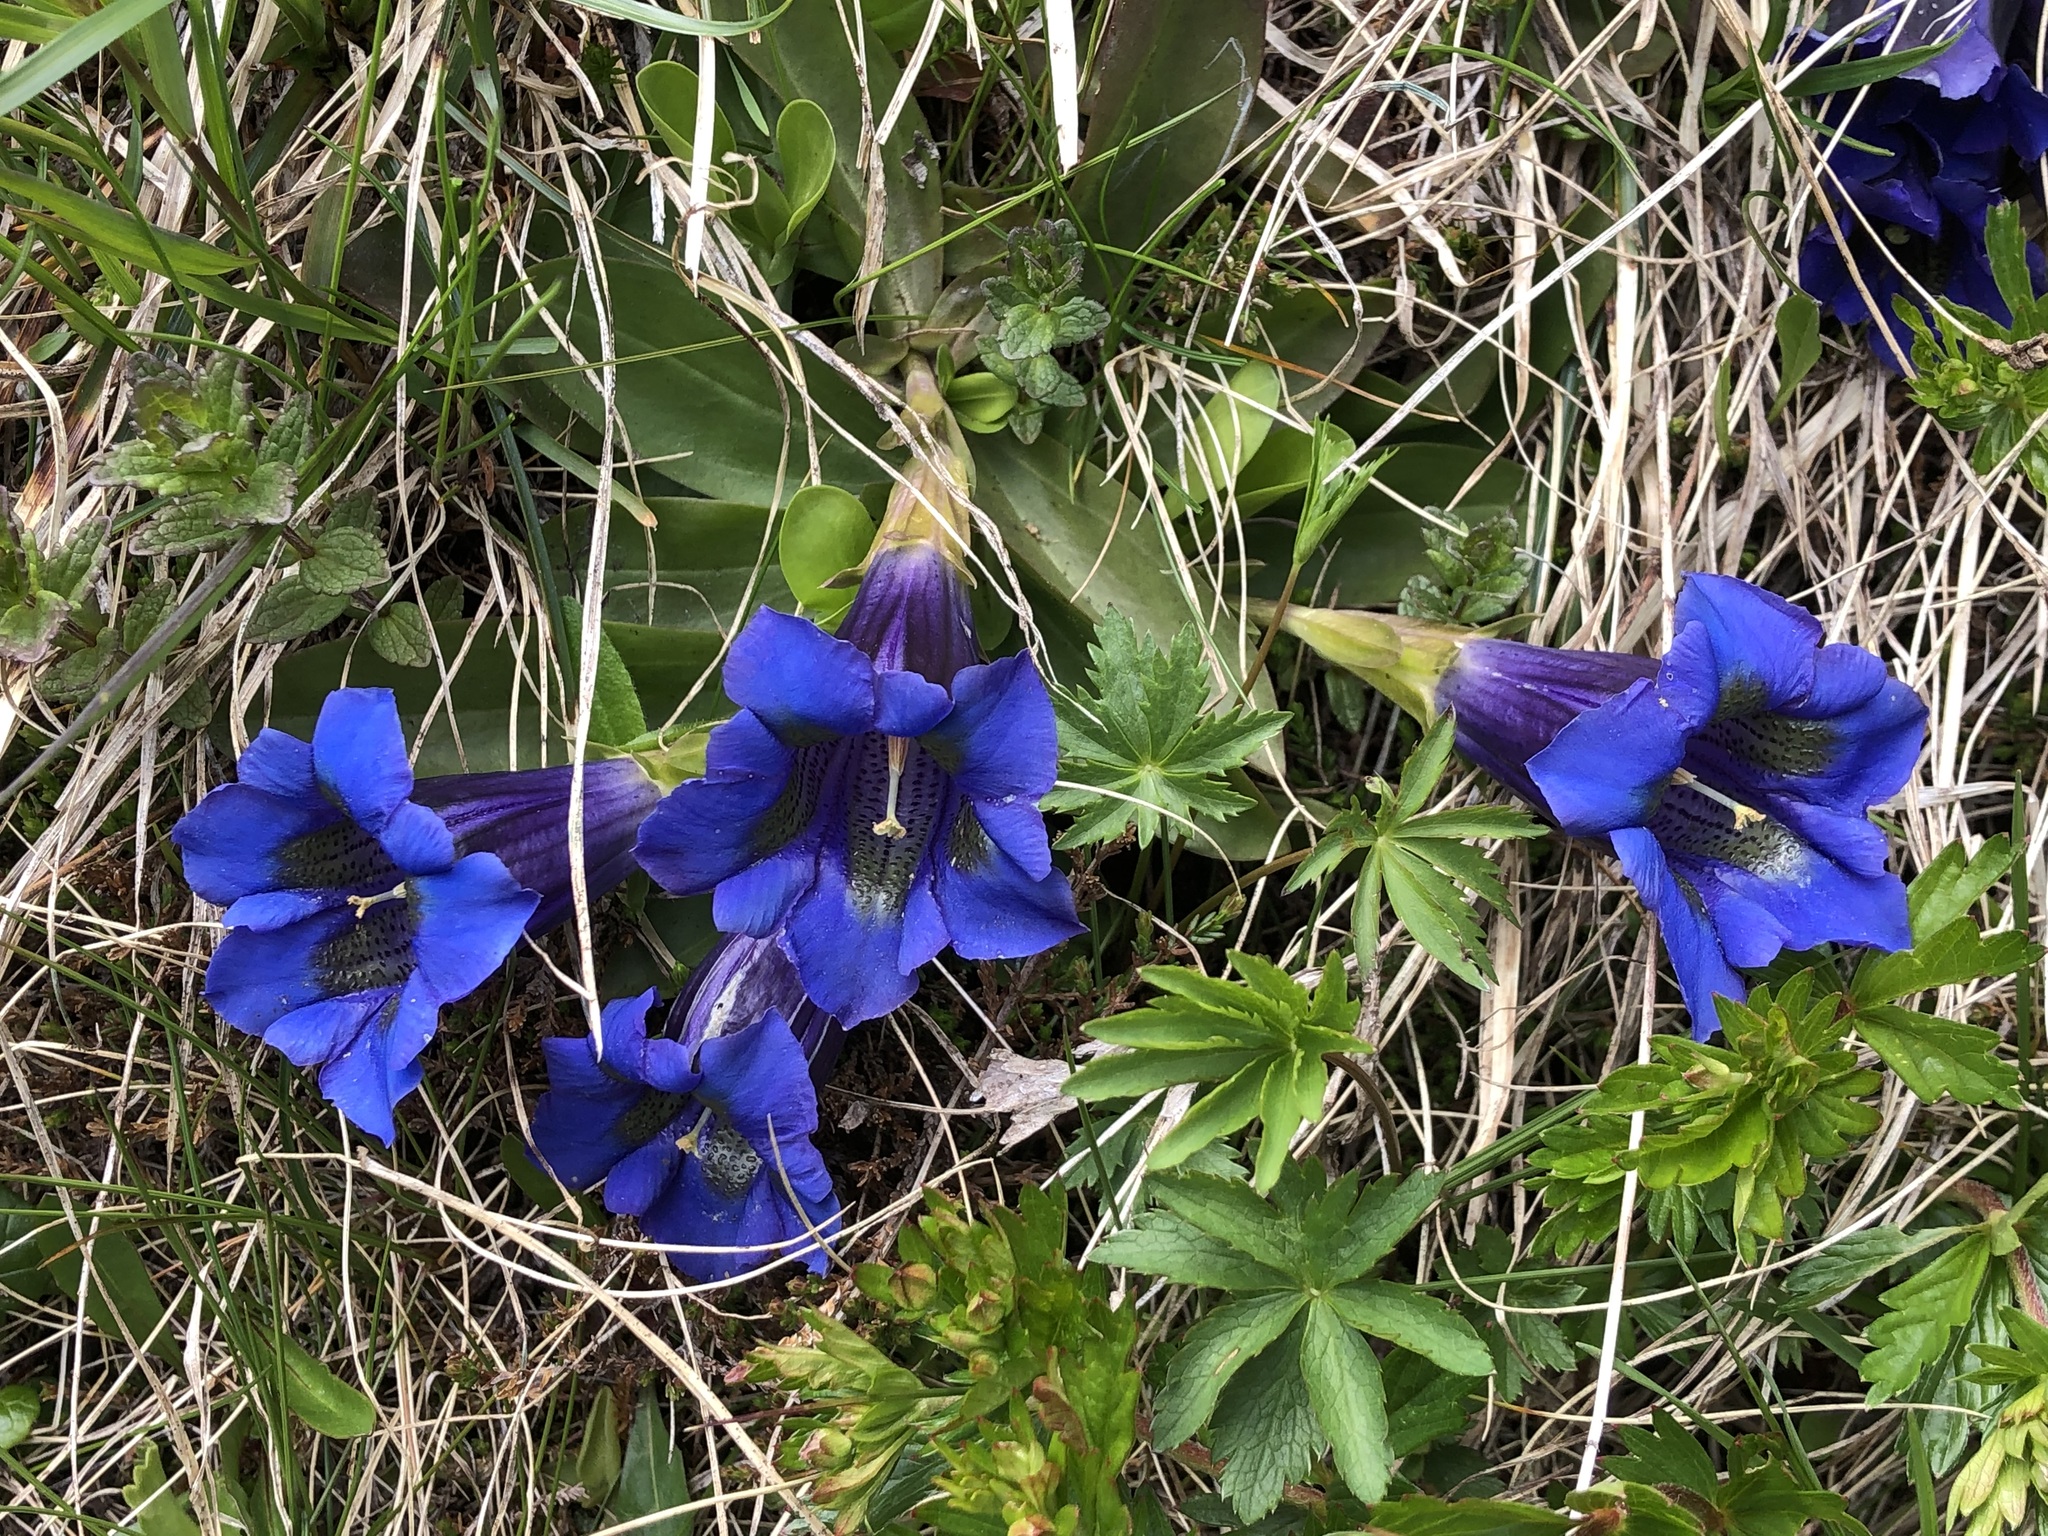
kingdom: Plantae
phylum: Tracheophyta
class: Magnoliopsida
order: Gentianales
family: Gentianaceae
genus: Gentiana
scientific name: Gentiana acaulis
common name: Trumpet gentian
